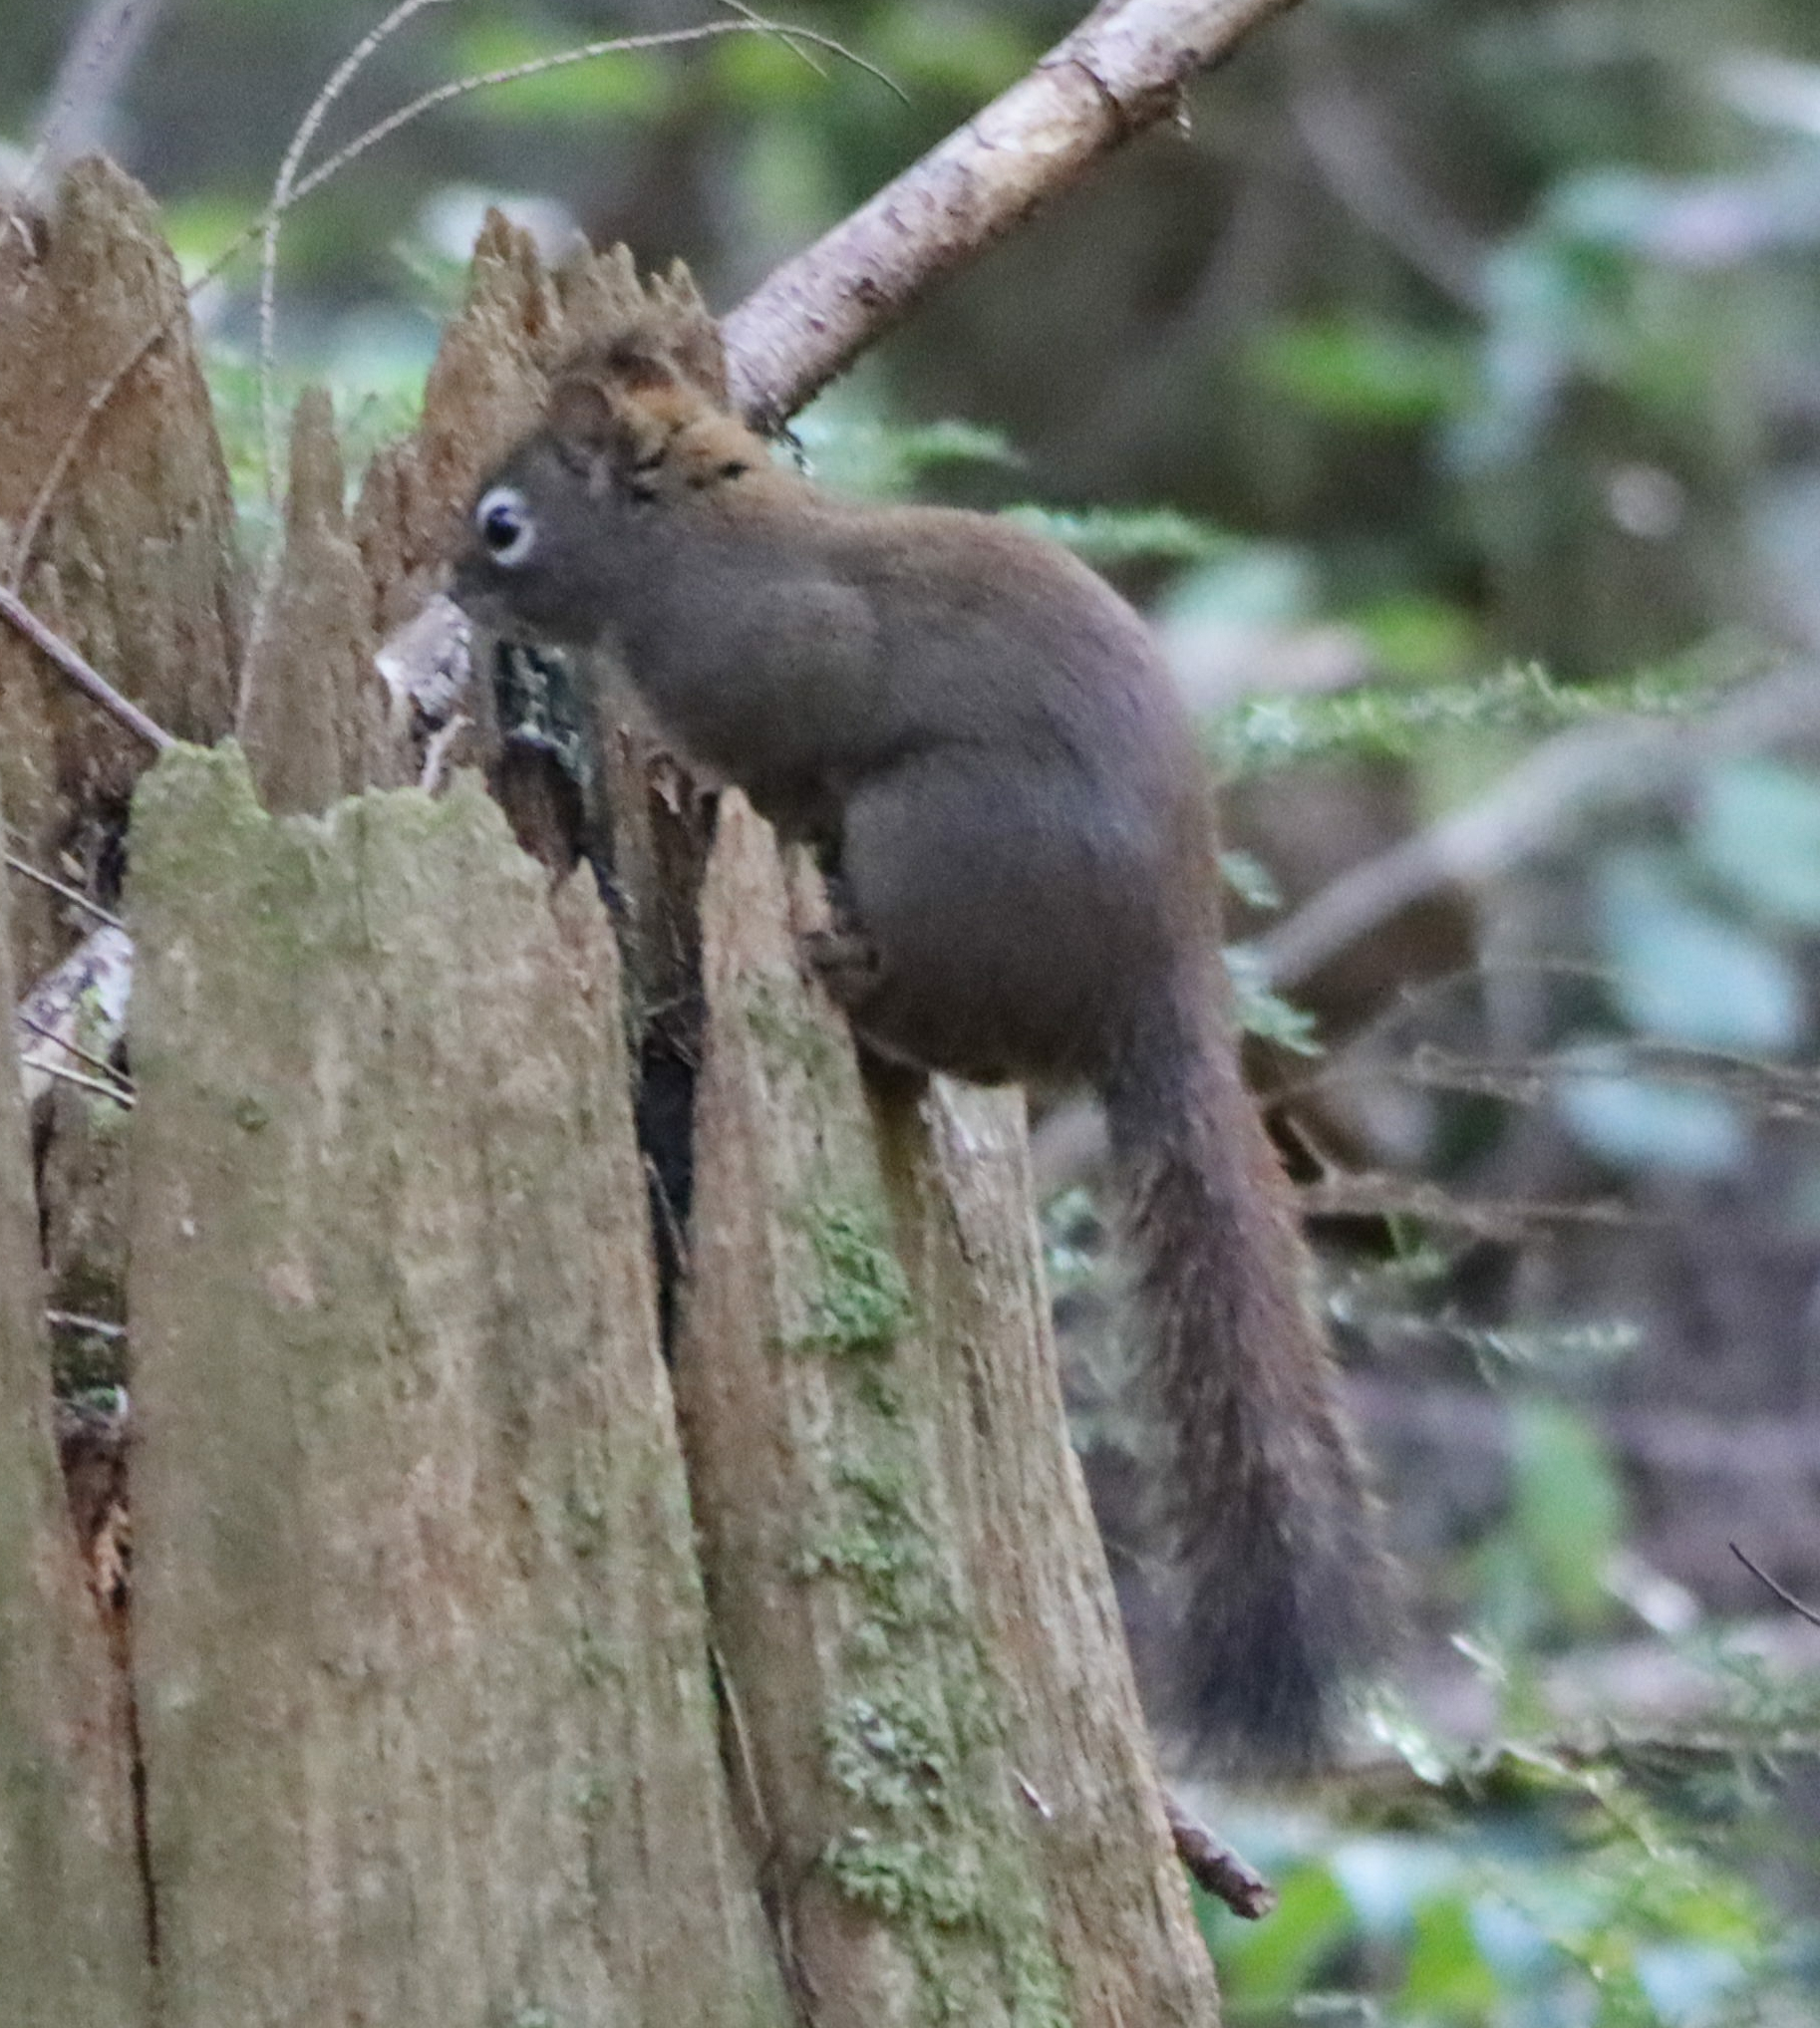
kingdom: Animalia
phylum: Chordata
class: Mammalia
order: Rodentia
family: Sciuridae
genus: Tamiasciurus
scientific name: Tamiasciurus hudsonicus
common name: Red squirrel
